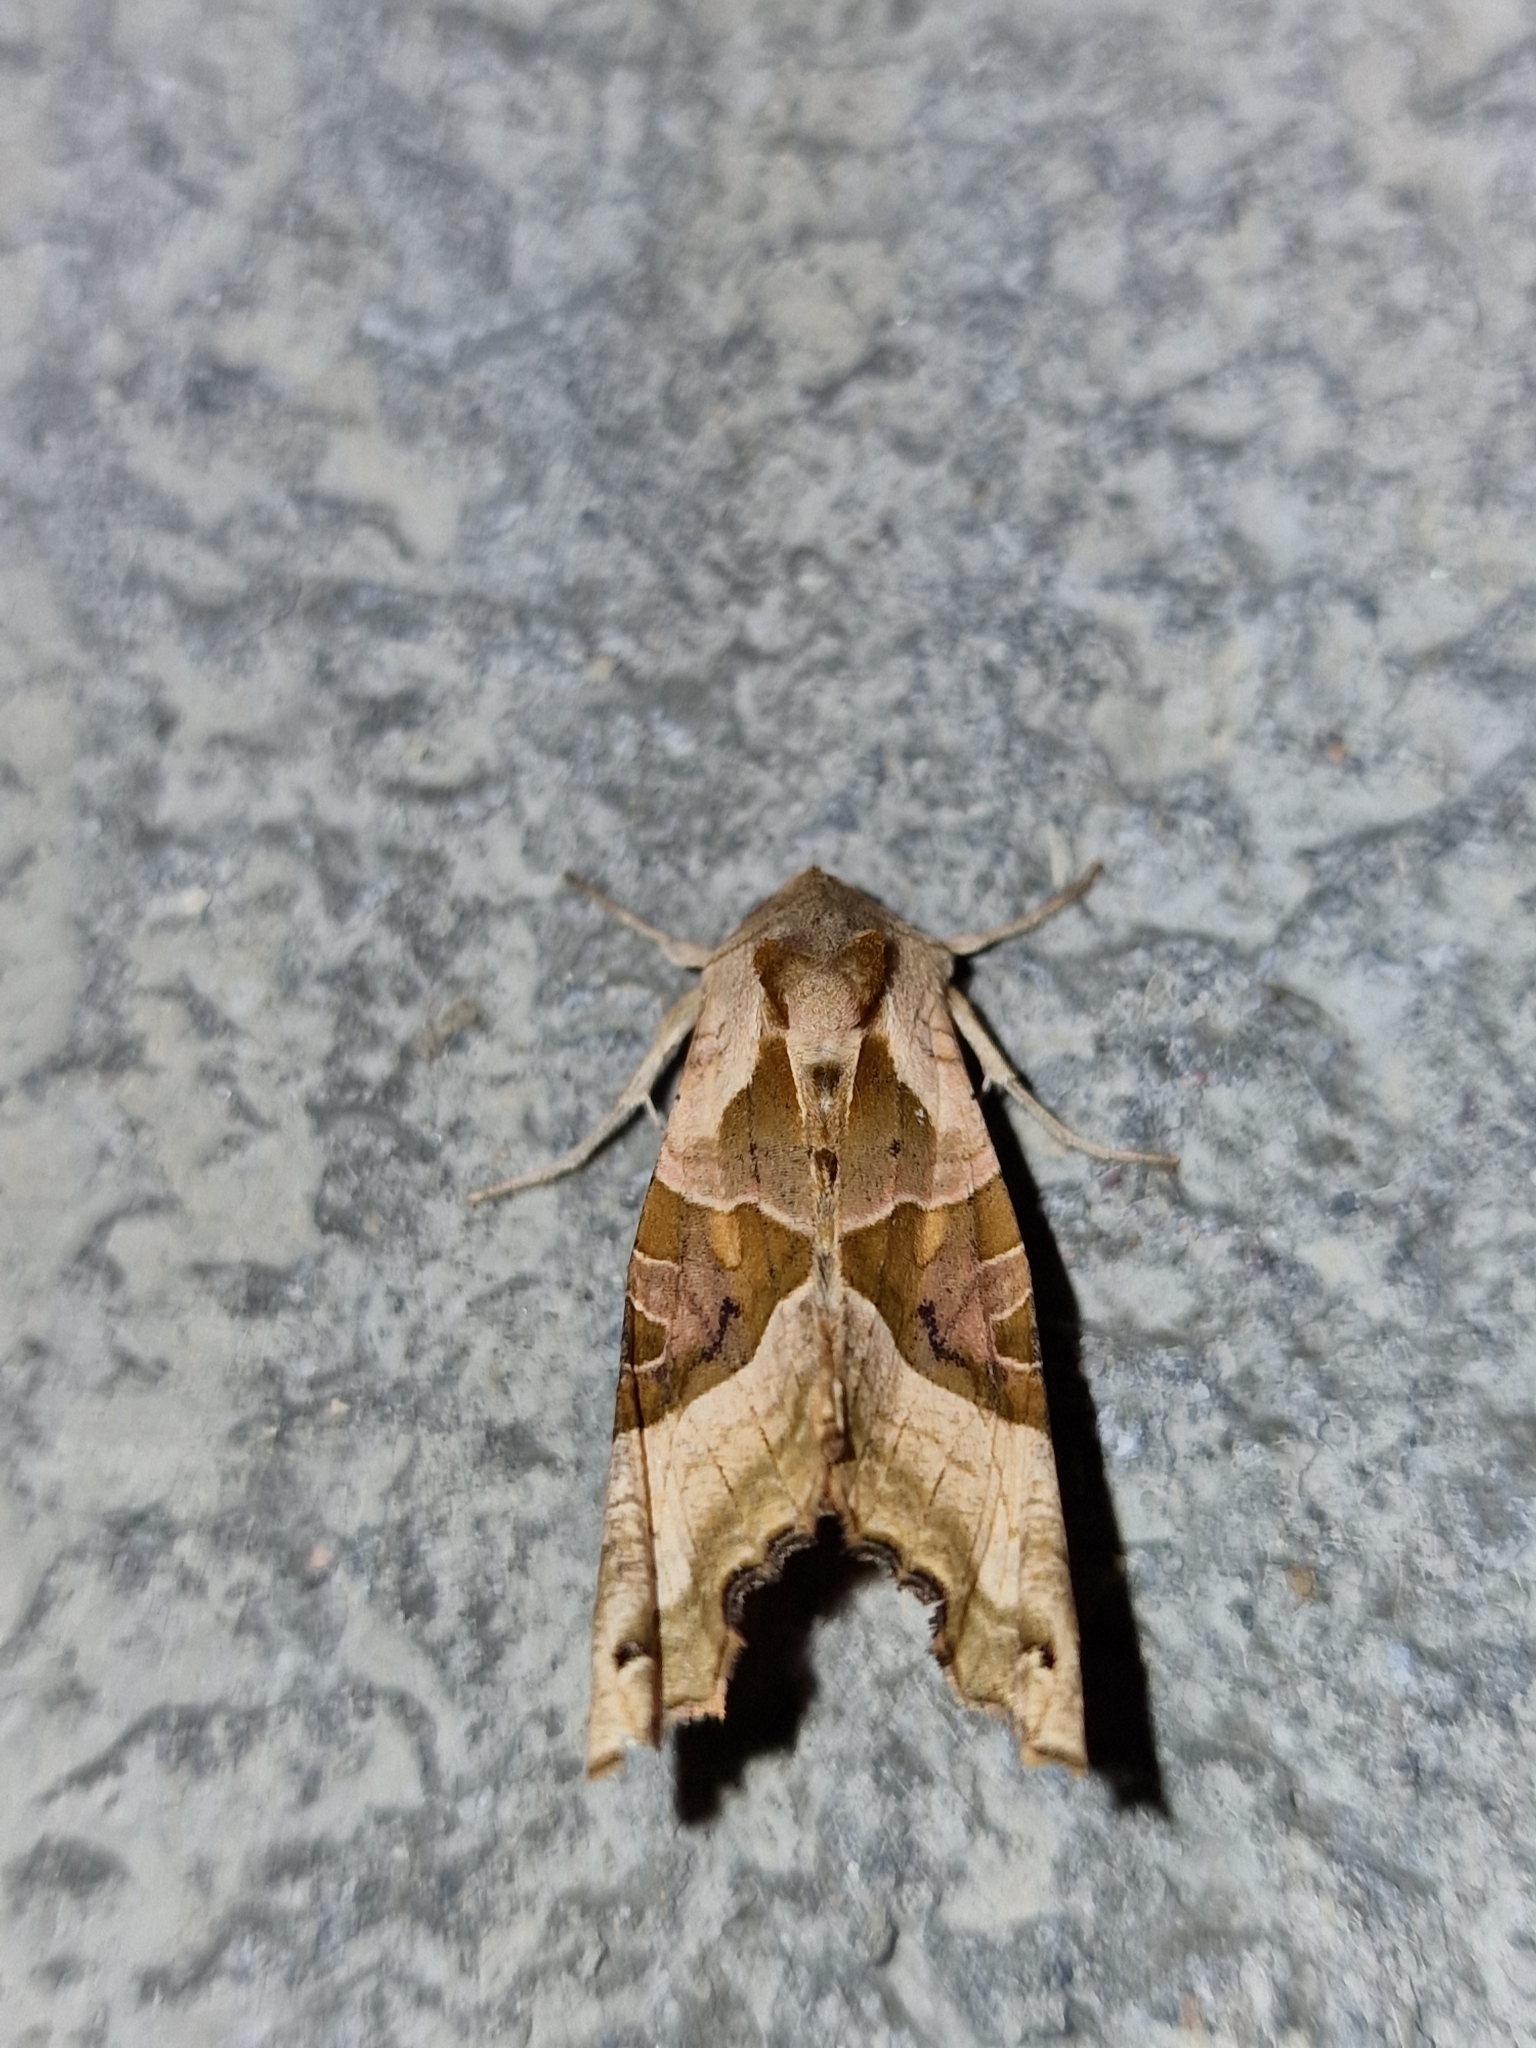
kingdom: Animalia
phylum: Arthropoda
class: Insecta
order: Lepidoptera
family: Noctuidae
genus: Phlogophora
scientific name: Phlogophora meticulosa
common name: Angle shades
